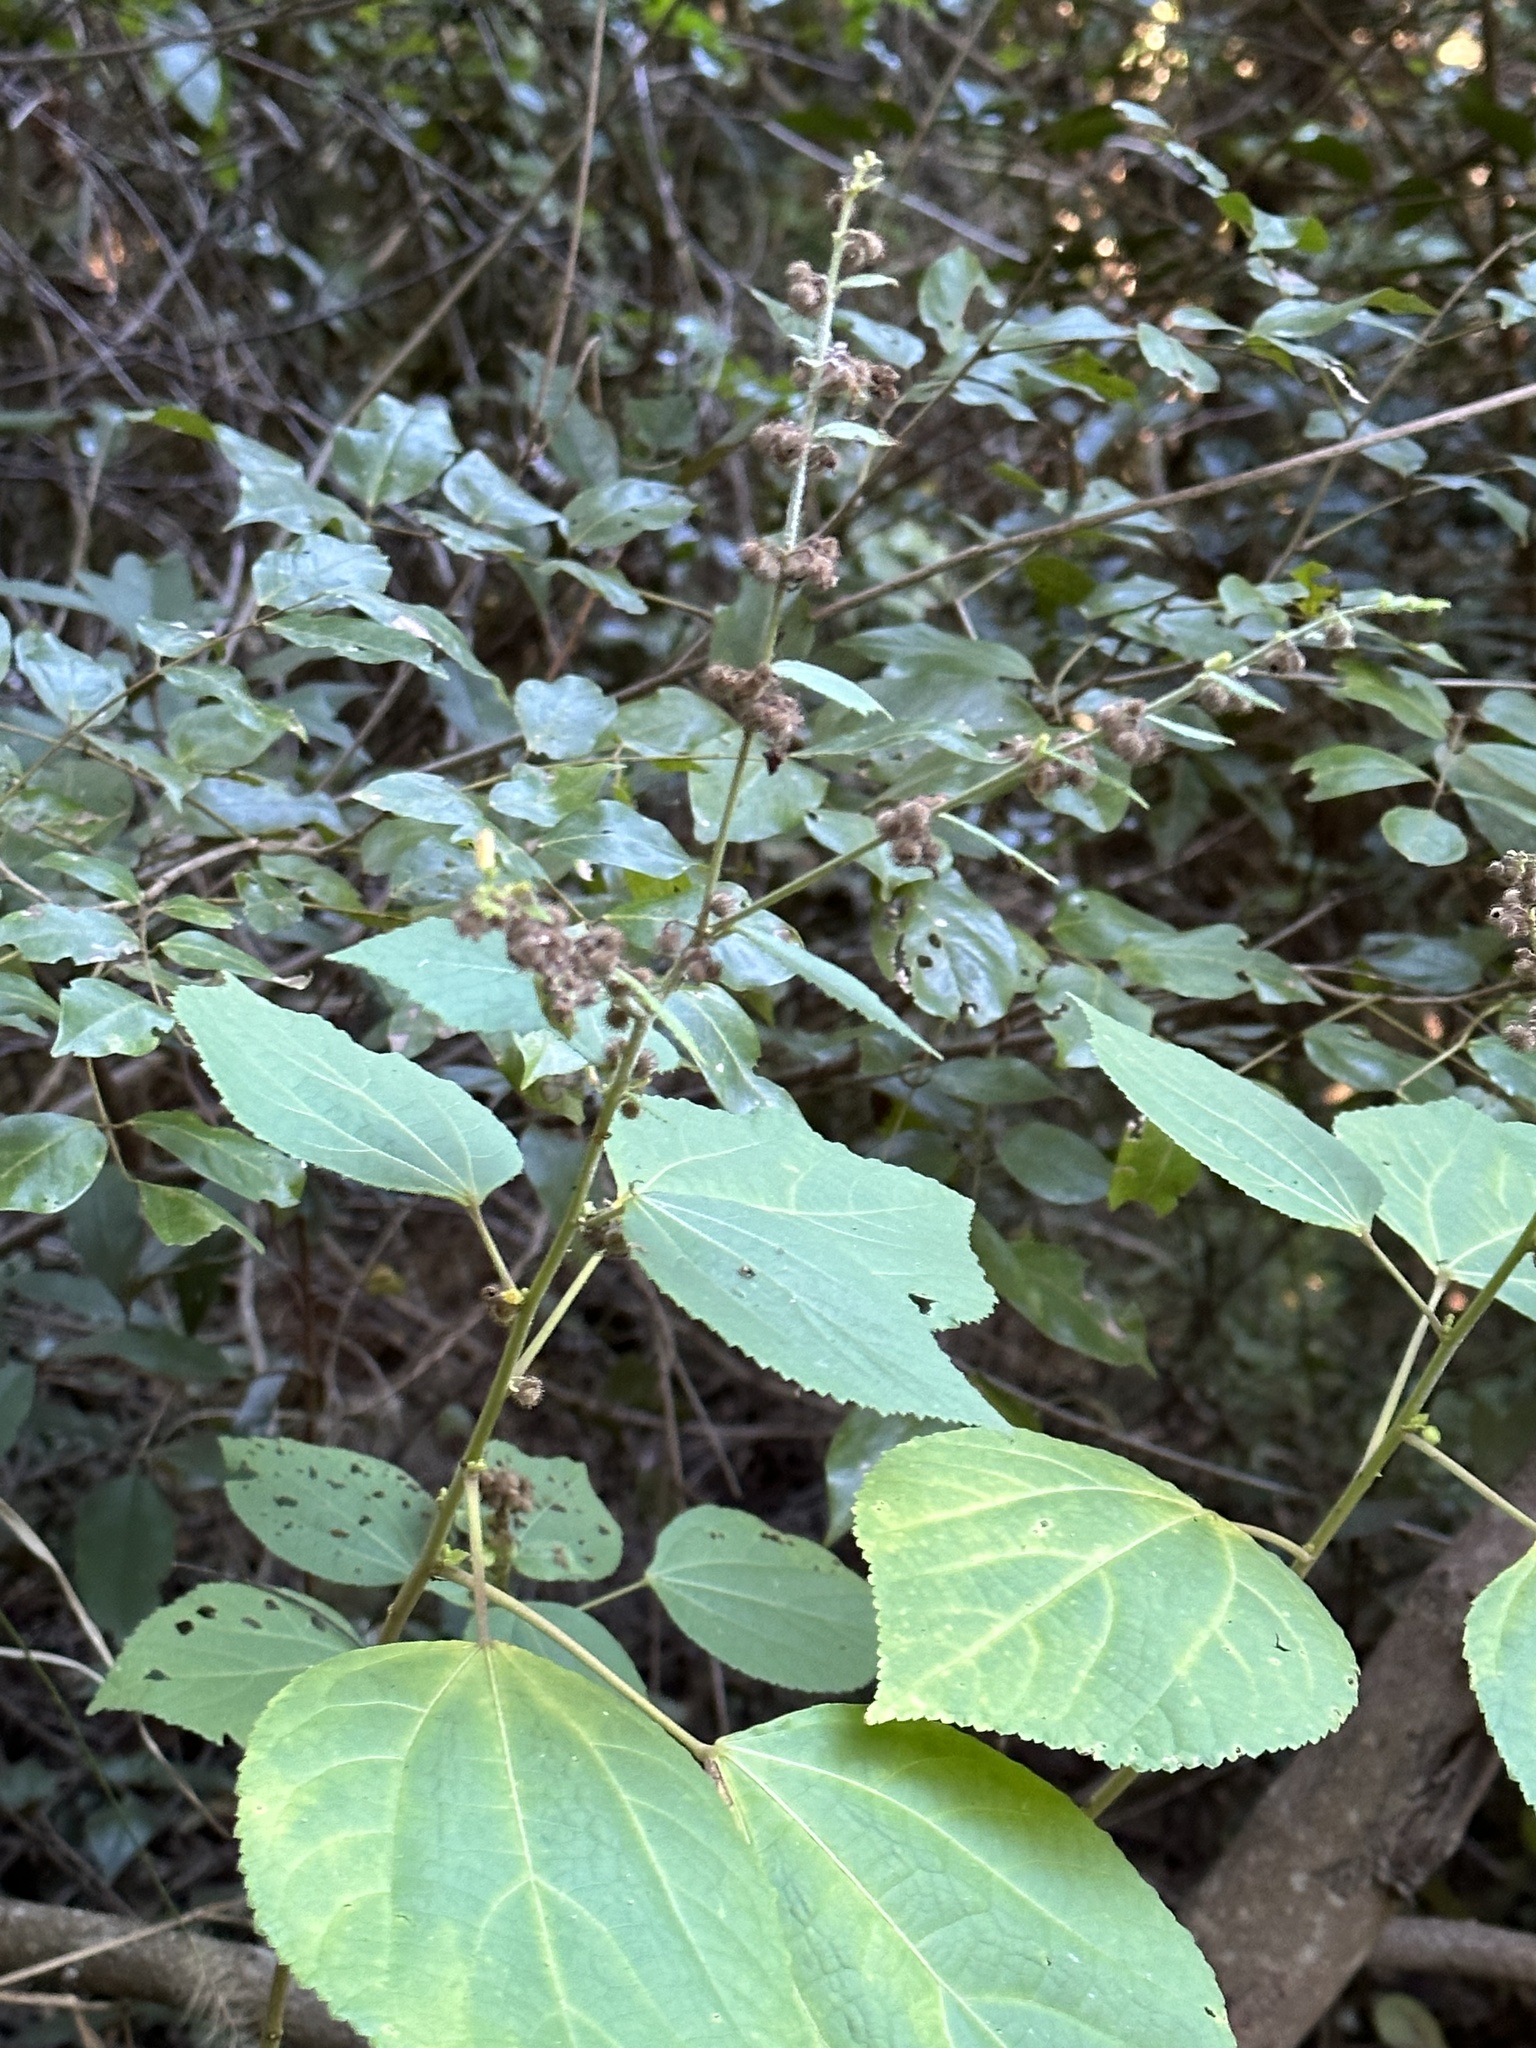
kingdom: Plantae
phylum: Tracheophyta
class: Magnoliopsida
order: Malvales
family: Malvaceae
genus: Triumfetta
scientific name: Triumfetta rhomboidea
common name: Diamond burbark
